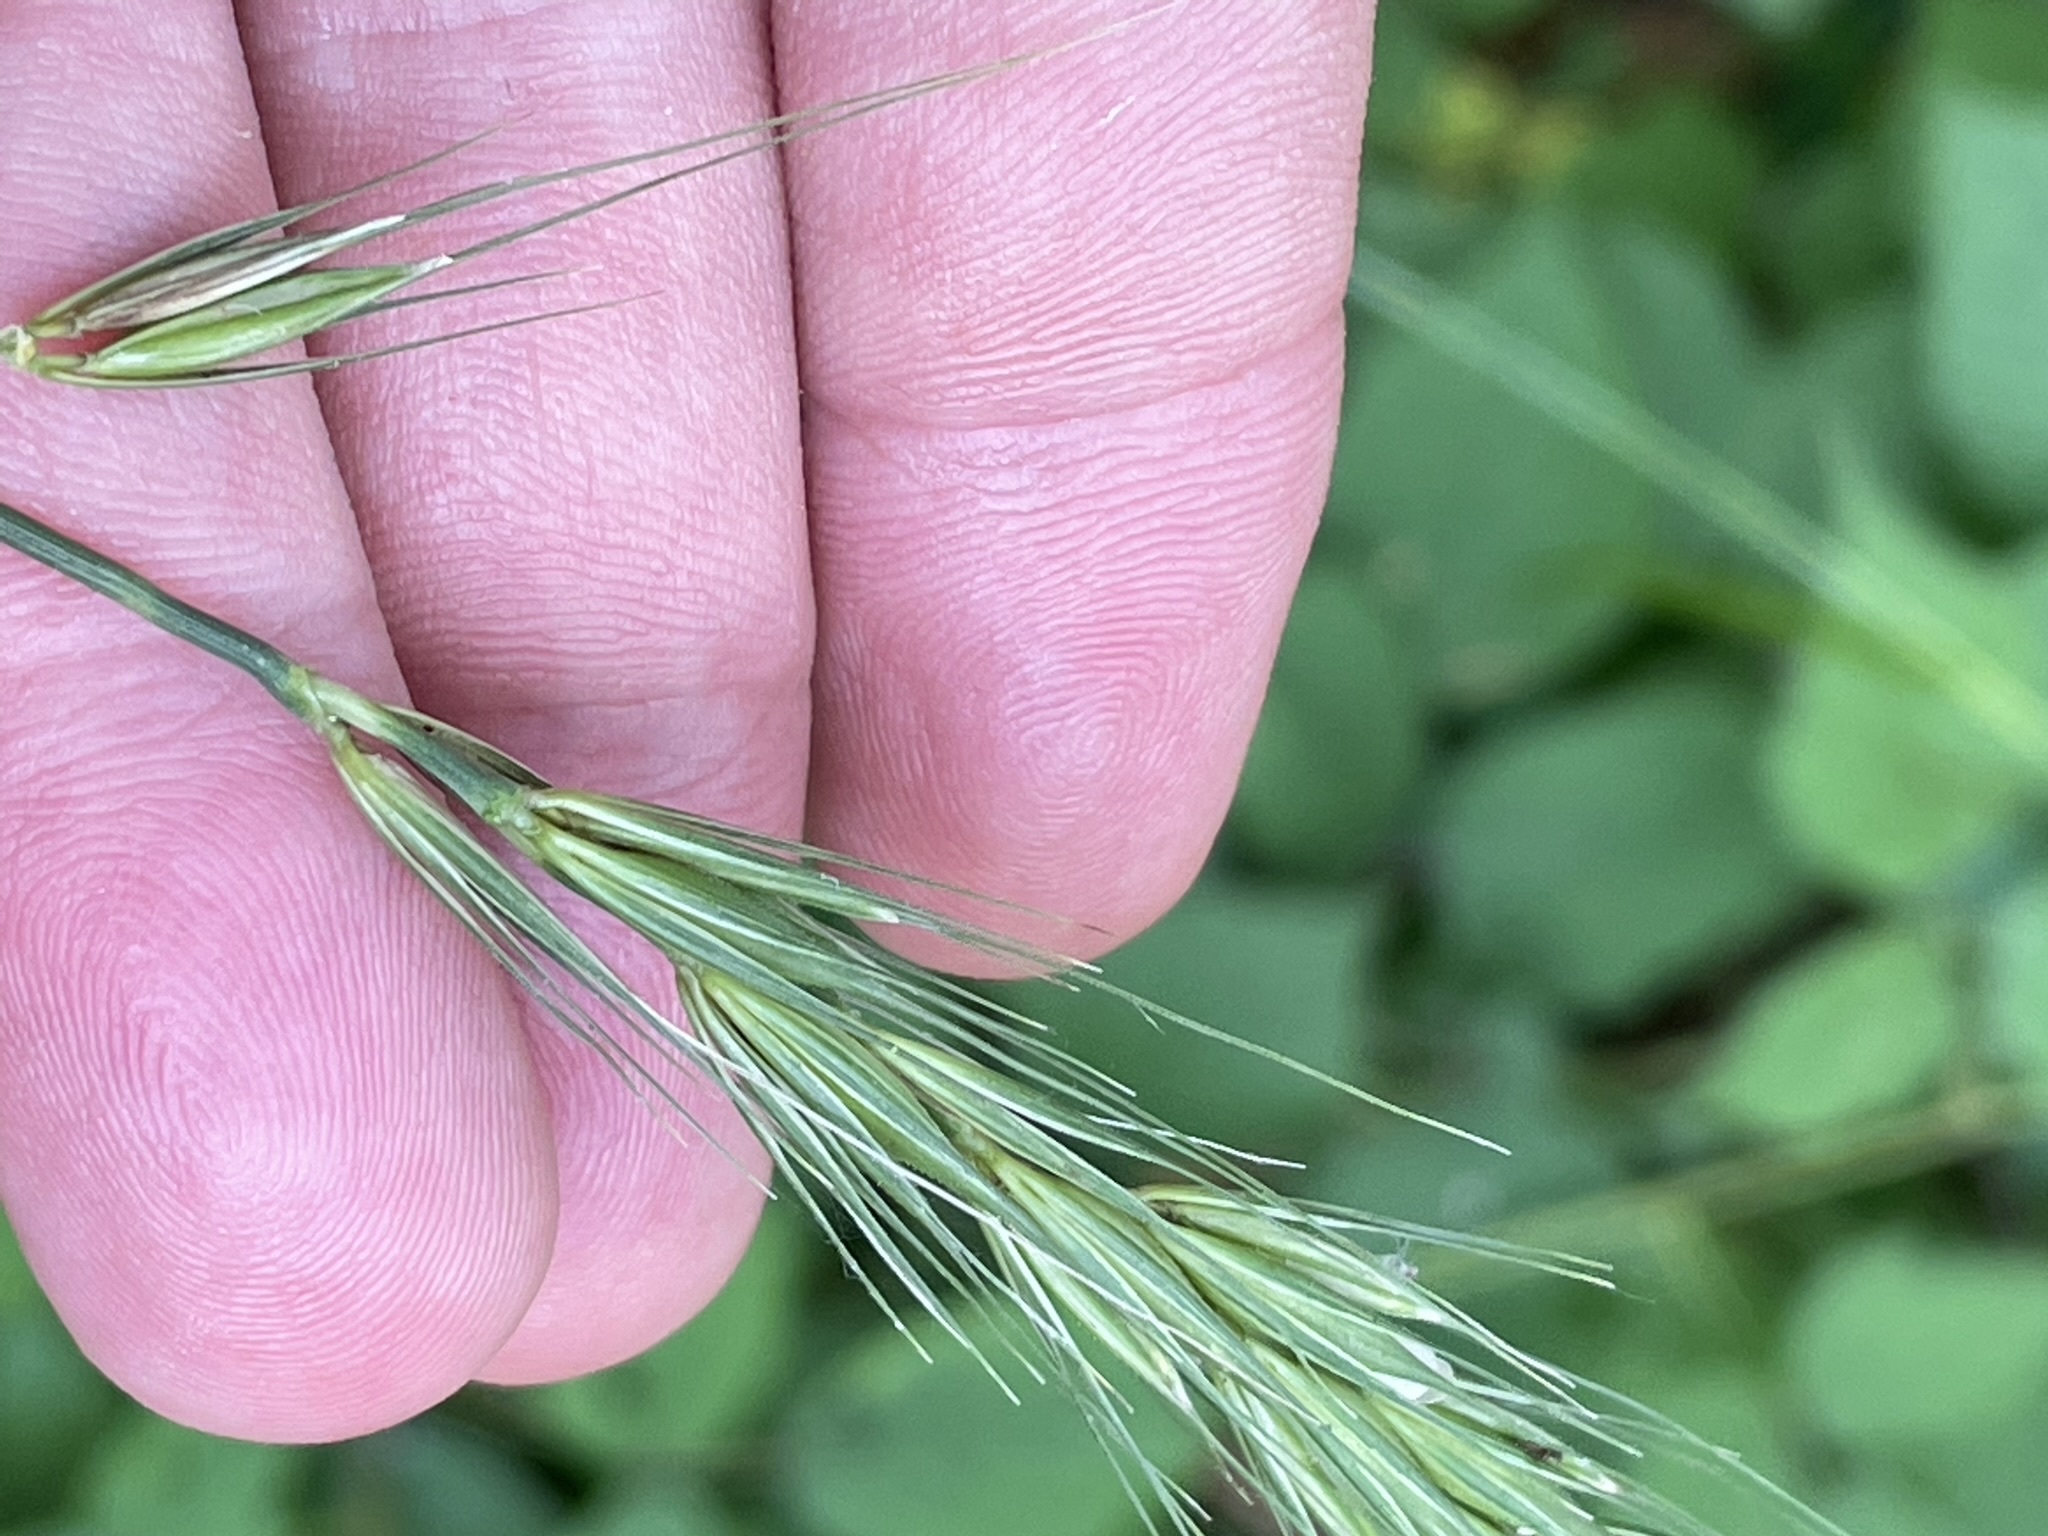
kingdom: Plantae
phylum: Tracheophyta
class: Liliopsida
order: Poales
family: Poaceae
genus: Hordelymus
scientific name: Hordelymus europaeus
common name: Wood-barley
